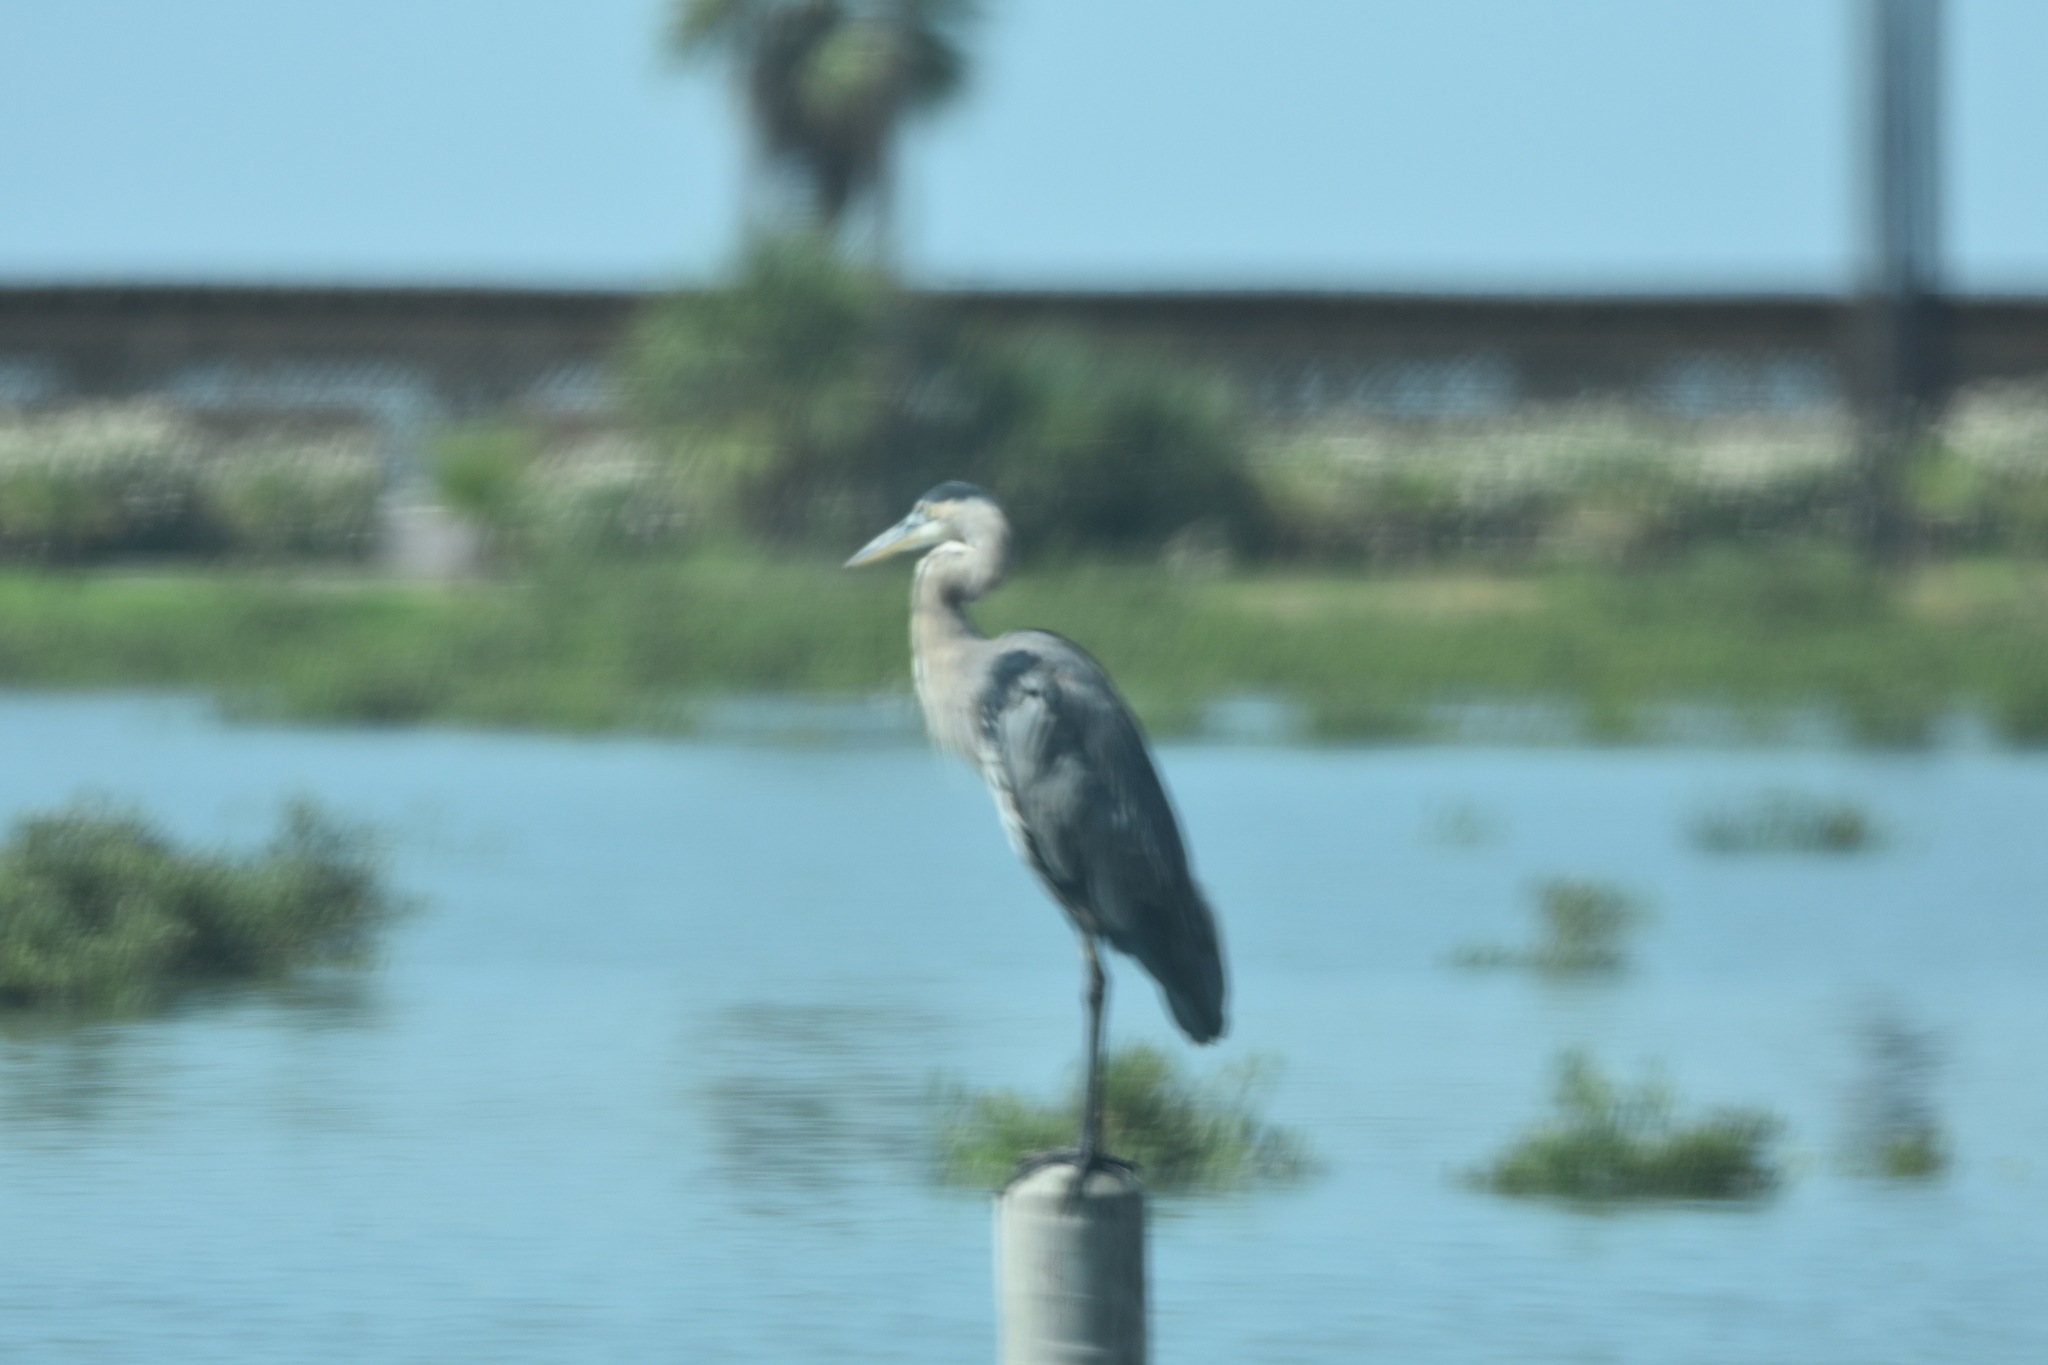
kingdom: Animalia
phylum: Chordata
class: Aves
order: Pelecaniformes
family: Ardeidae
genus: Ardea
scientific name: Ardea herodias
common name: Great blue heron
